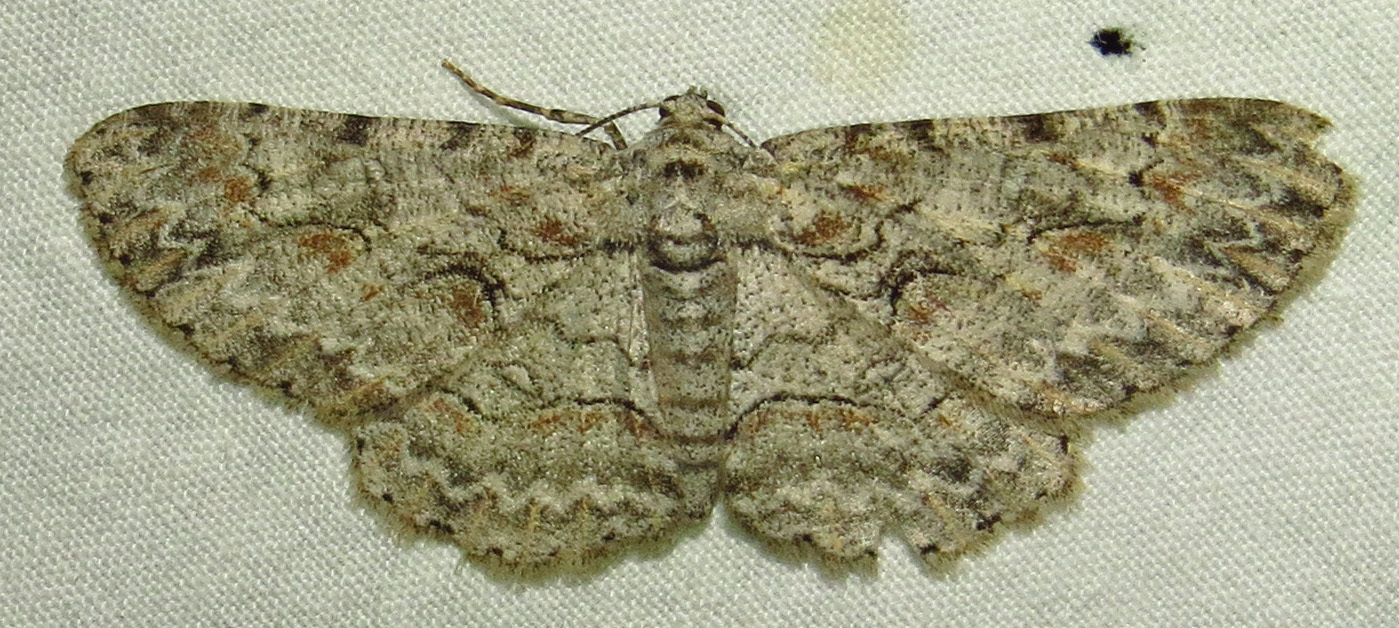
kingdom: Animalia
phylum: Arthropoda
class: Insecta
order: Lepidoptera
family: Geometridae
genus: Iridopsis
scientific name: Iridopsis defectaria
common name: Brown-shaded gray
